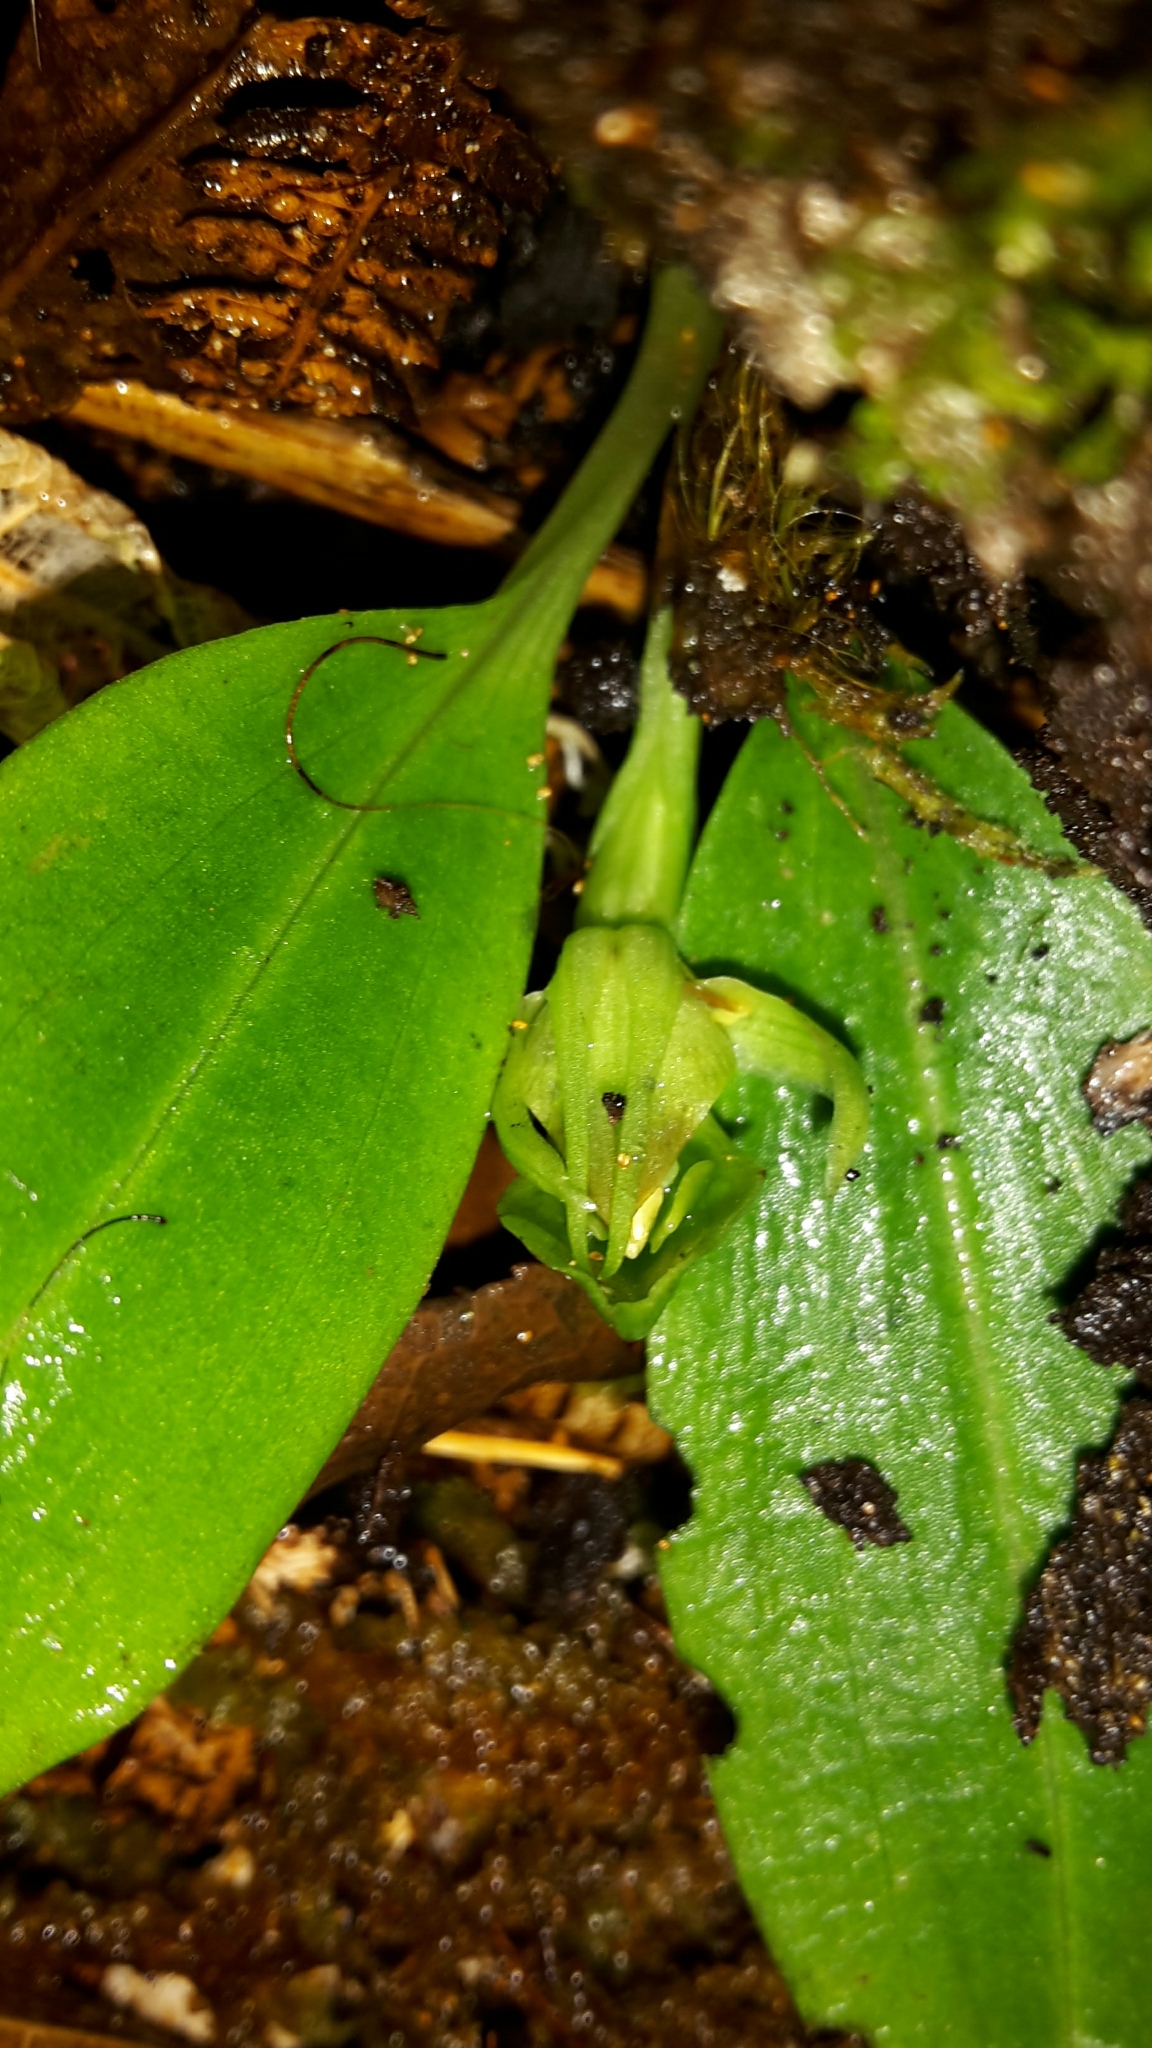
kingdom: Plantae
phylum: Tracheophyta
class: Liliopsida
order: Asparagales
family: Orchidaceae
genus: Chiloglottis
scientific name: Chiloglottis cornuta
